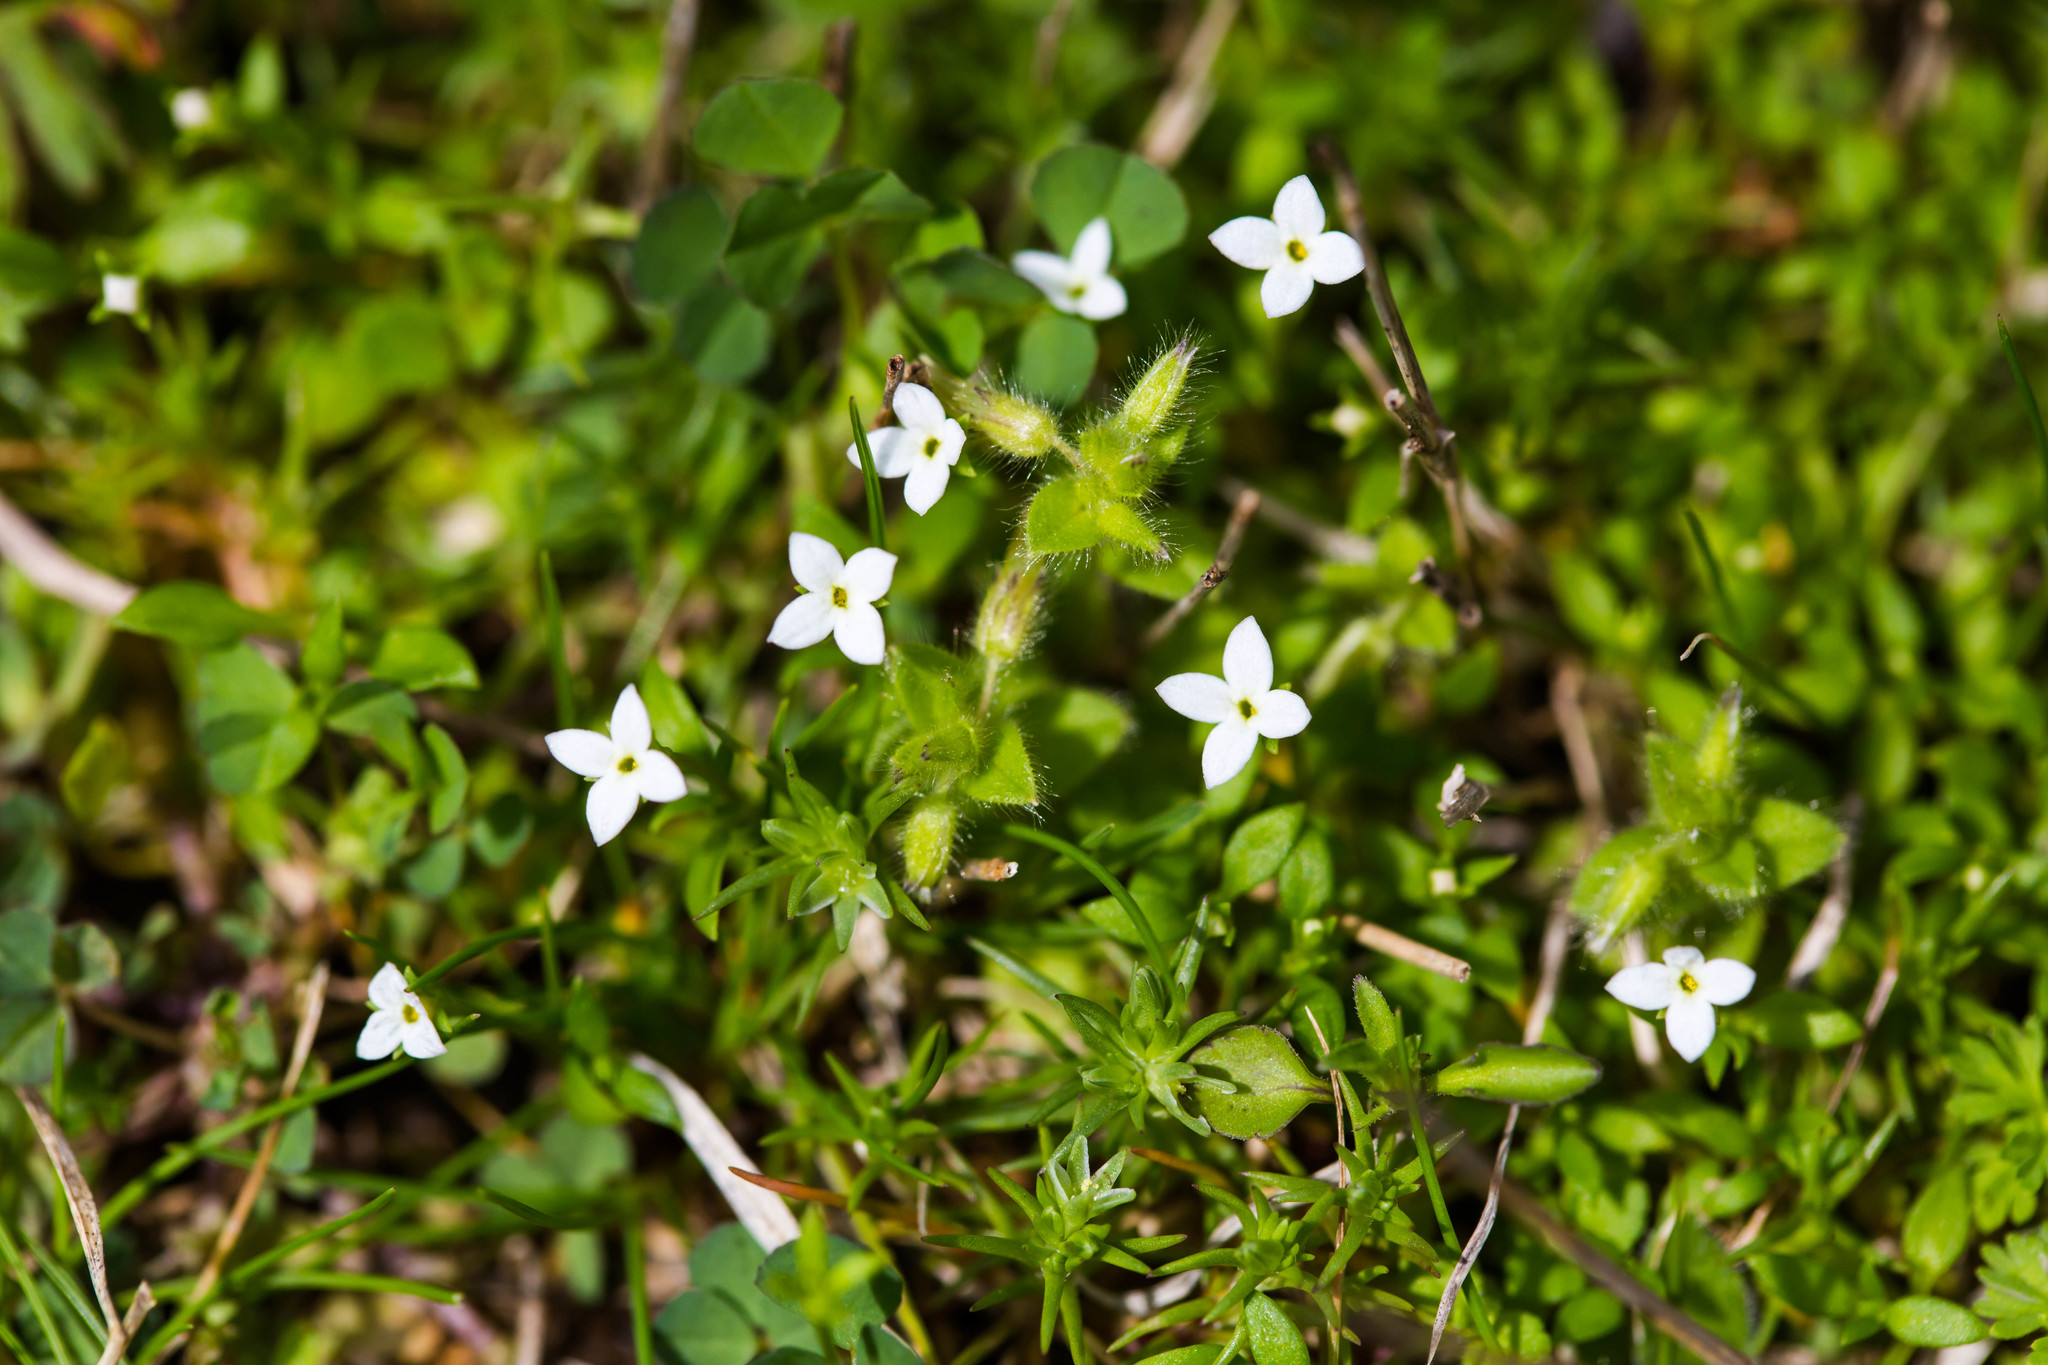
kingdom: Plantae
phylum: Tracheophyta
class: Magnoliopsida
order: Gentianales
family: Rubiaceae
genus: Houstonia
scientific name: Houstonia pusilla
